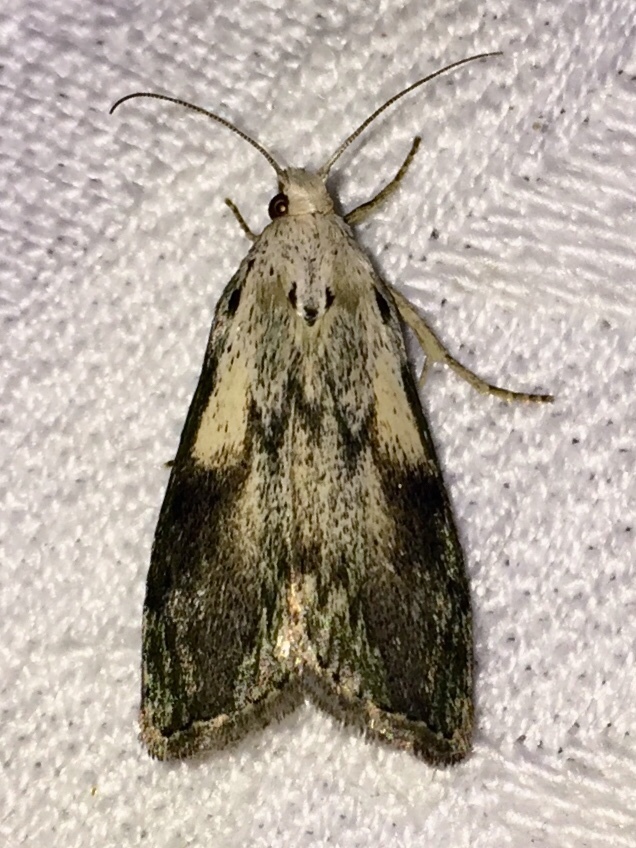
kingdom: Animalia
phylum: Arthropoda
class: Insecta
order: Lepidoptera
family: Pyralidae
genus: Aphomia
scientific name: Aphomia sociella
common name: Bee moth
